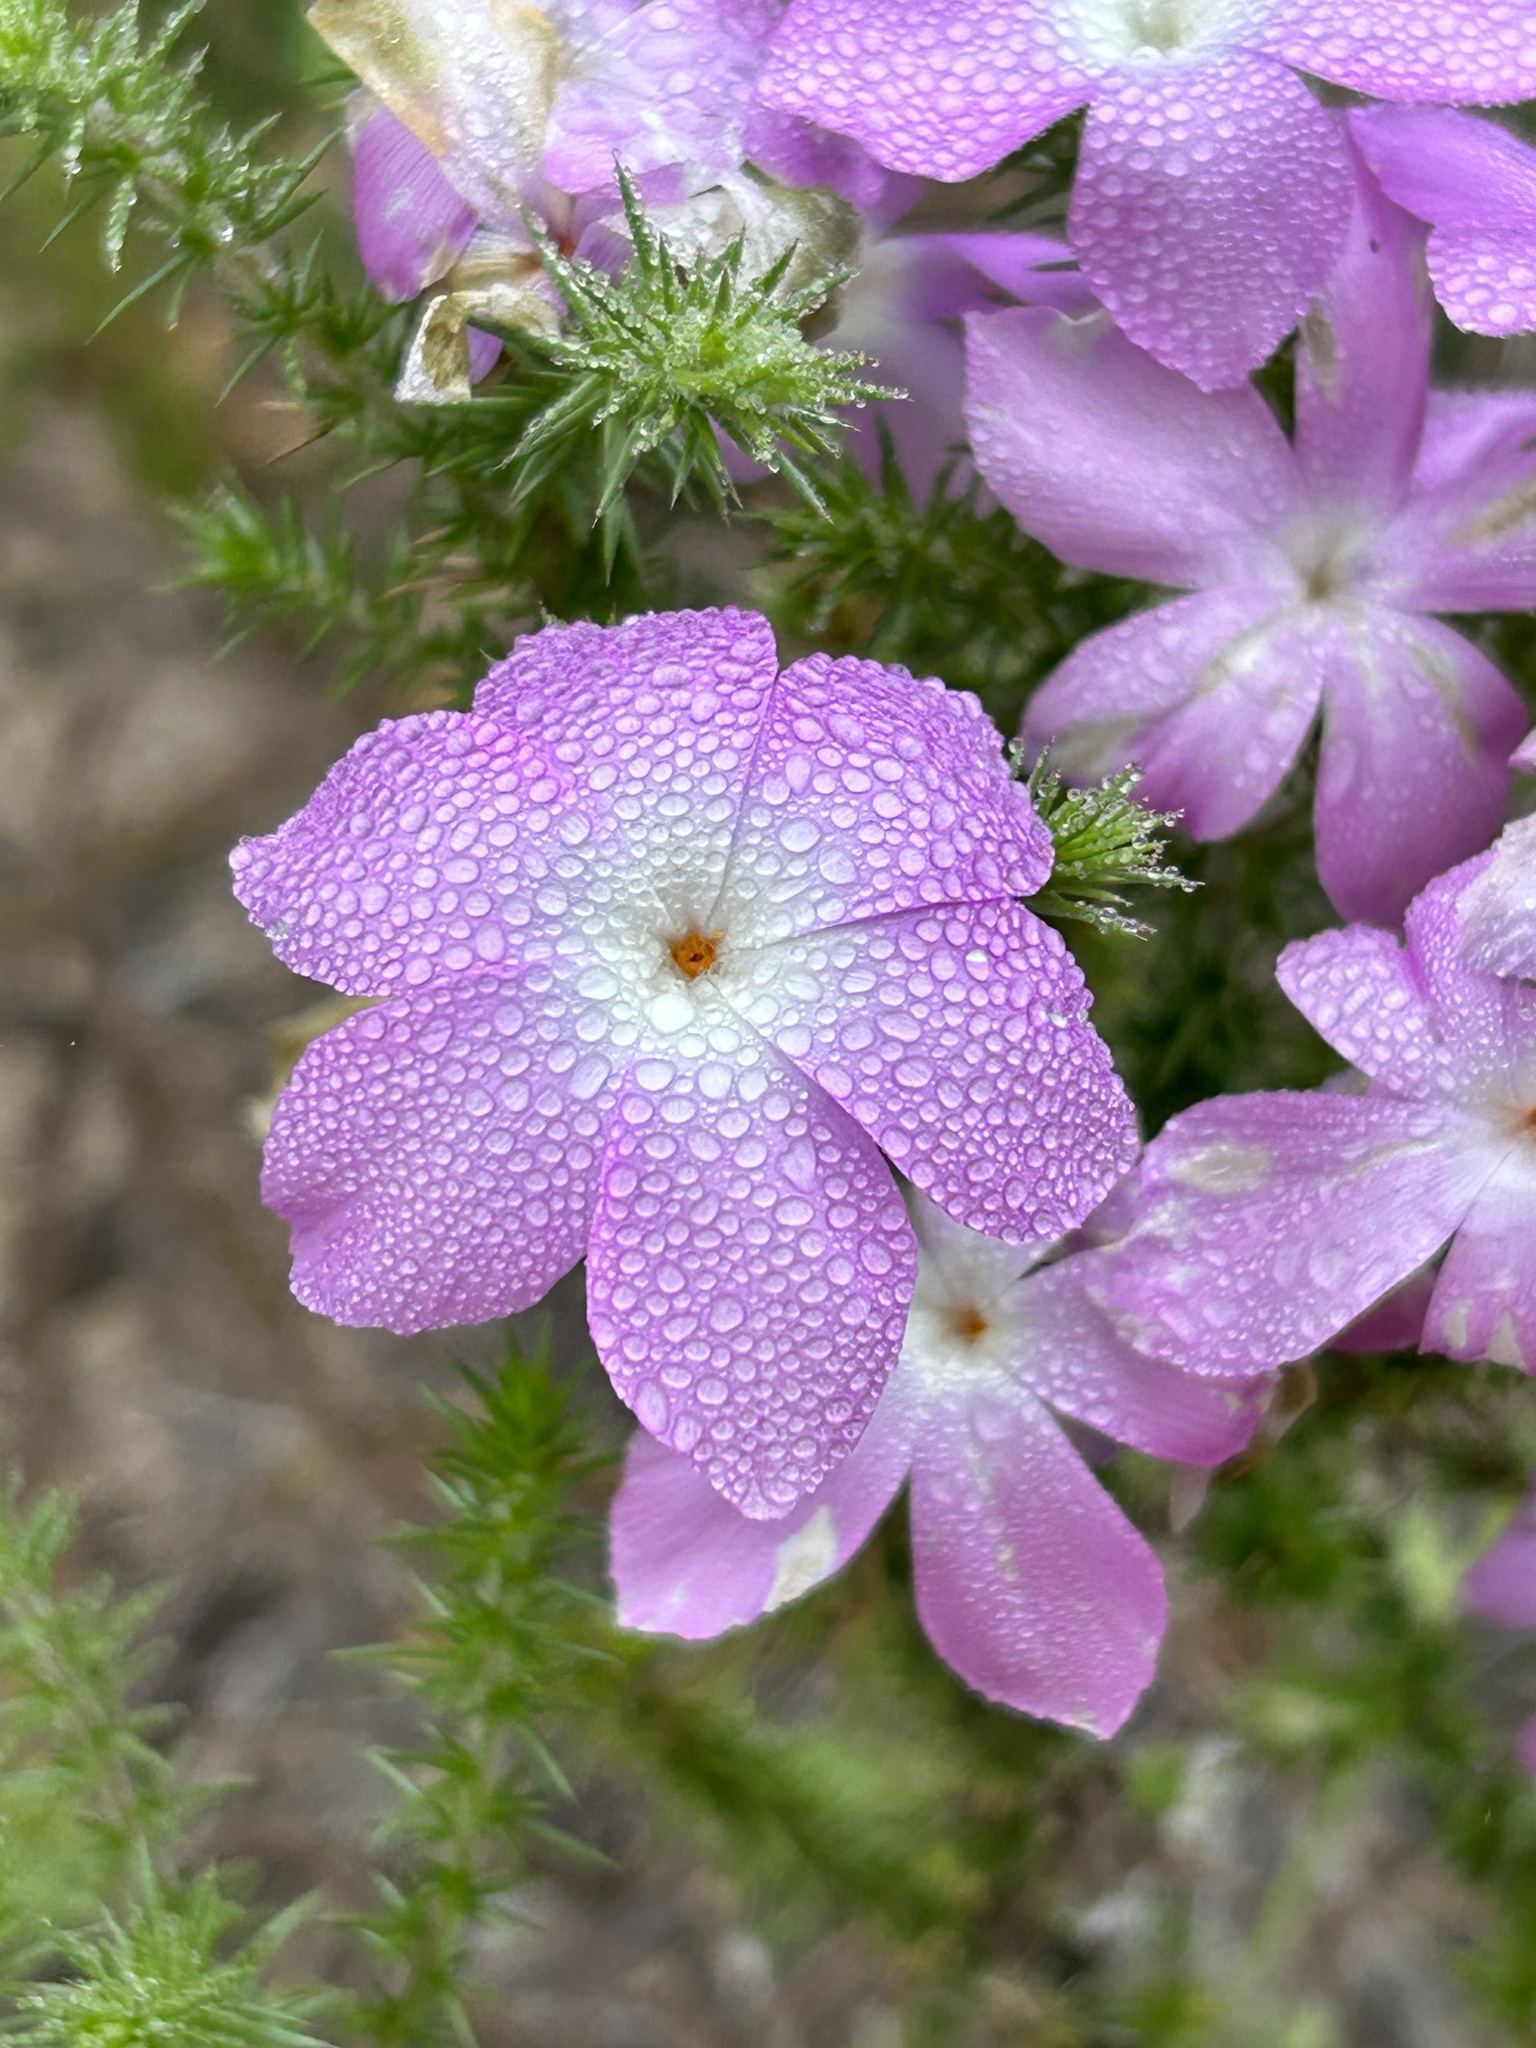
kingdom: Plantae
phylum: Tracheophyta
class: Magnoliopsida
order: Ericales
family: Polemoniaceae
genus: Linanthus
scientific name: Linanthus californicus
